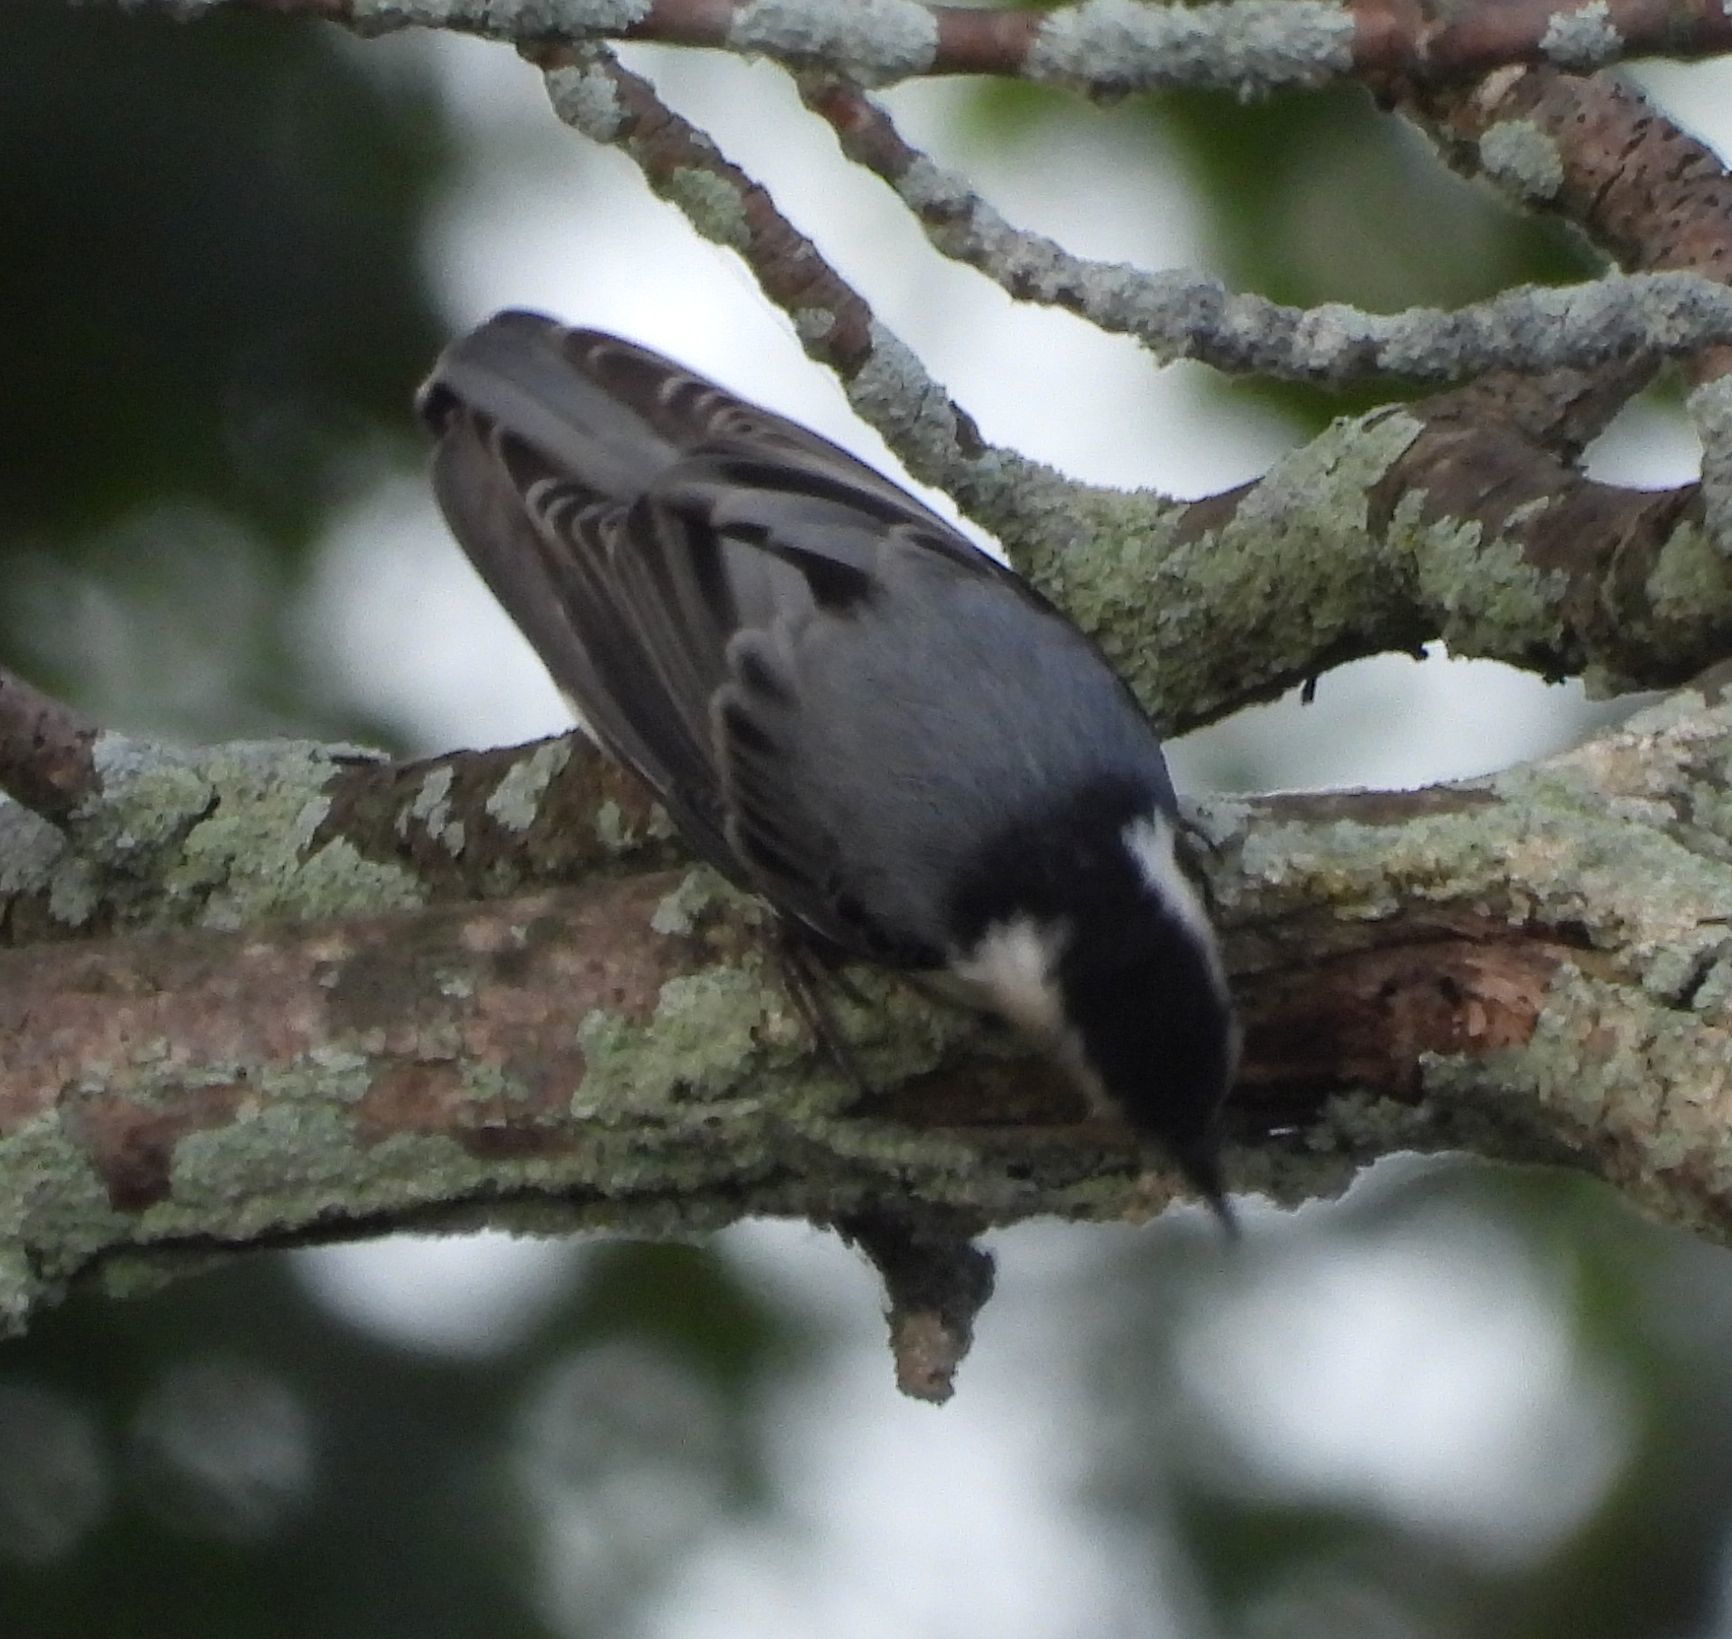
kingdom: Animalia
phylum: Chordata
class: Aves
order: Passeriformes
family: Sittidae
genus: Sitta
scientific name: Sitta carolinensis
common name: White-breasted nuthatch
